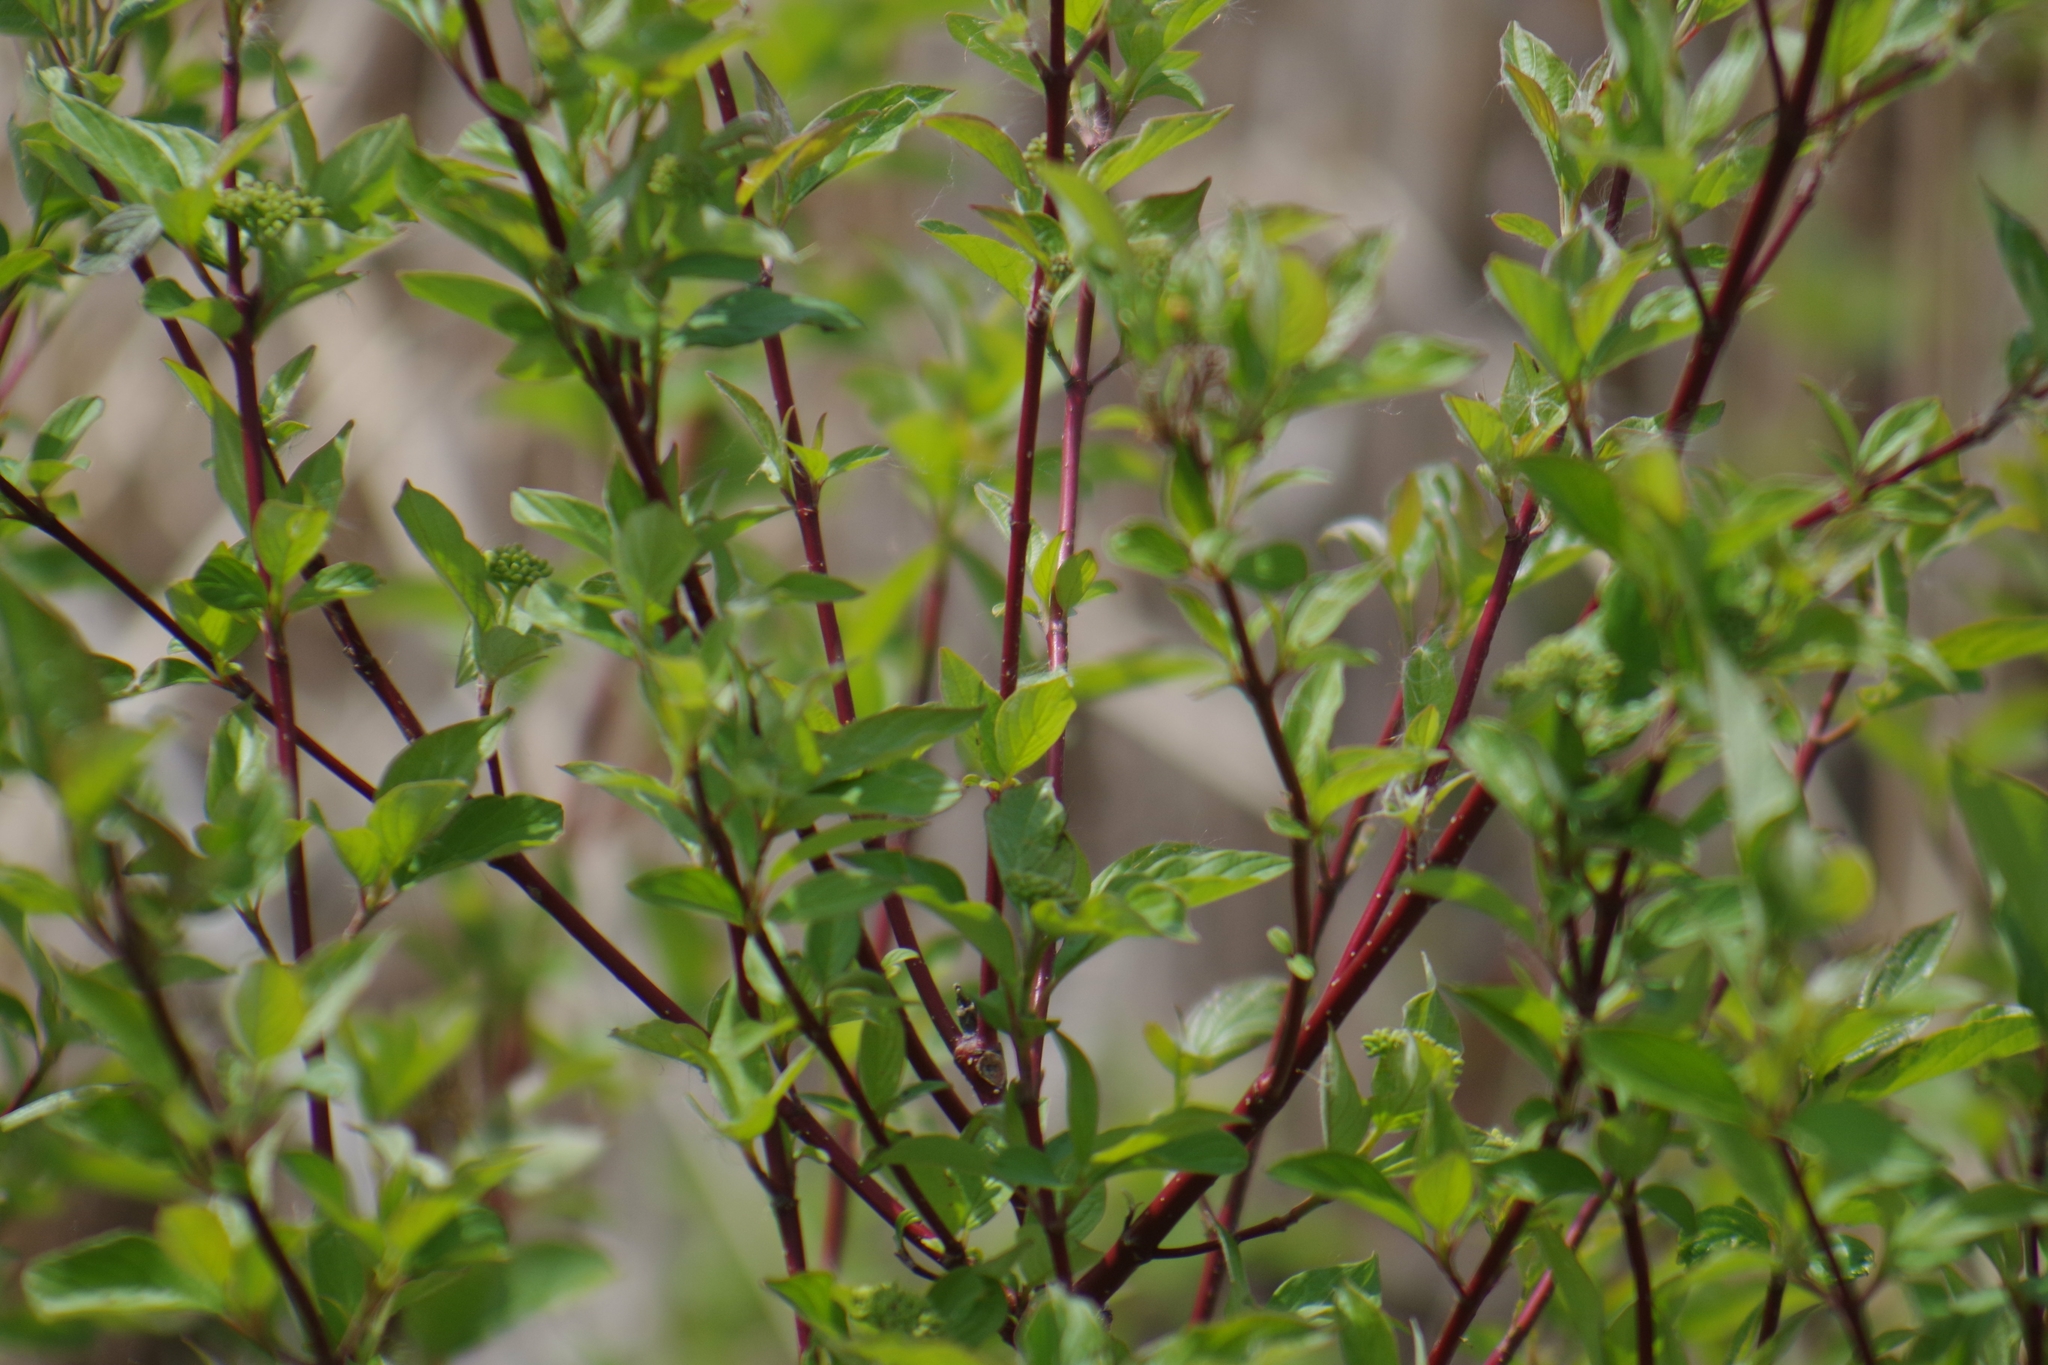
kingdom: Plantae
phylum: Tracheophyta
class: Magnoliopsida
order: Cornales
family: Cornaceae
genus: Cornus
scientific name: Cornus sericea
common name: Red-osier dogwood
